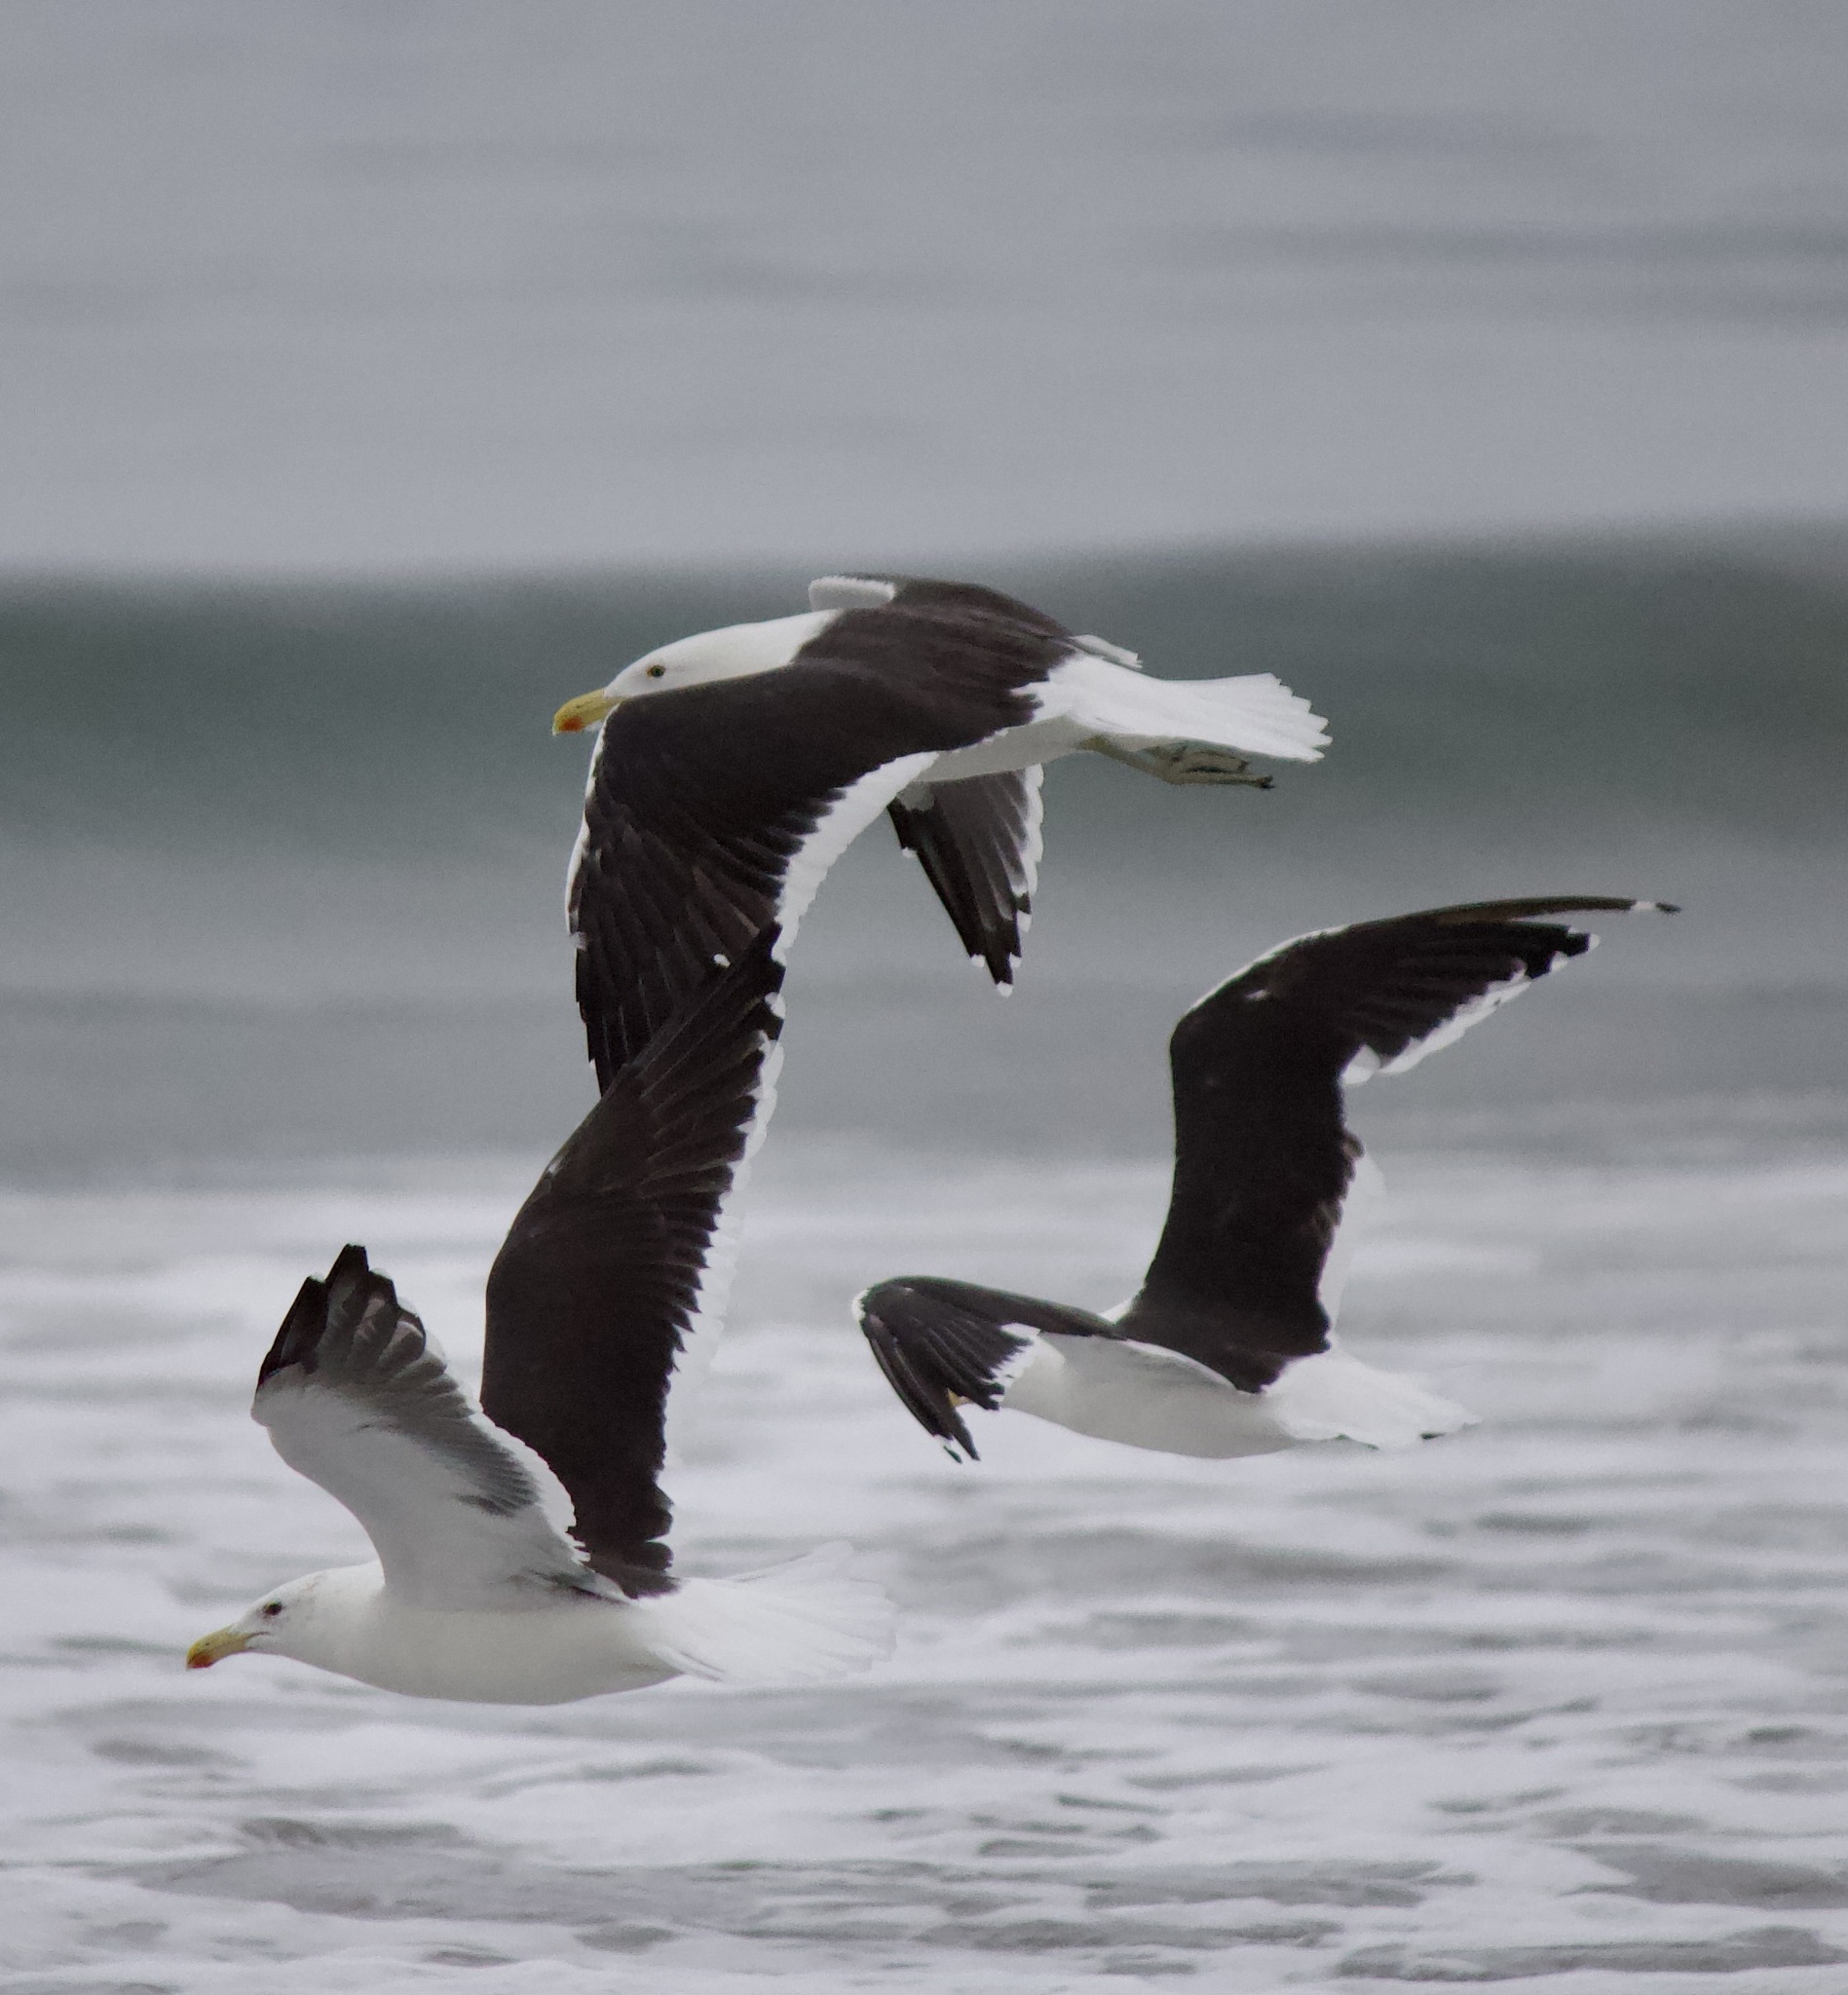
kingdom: Animalia
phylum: Chordata
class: Aves
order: Charadriiformes
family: Laridae
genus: Larus
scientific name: Larus dominicanus
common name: Kelp gull
